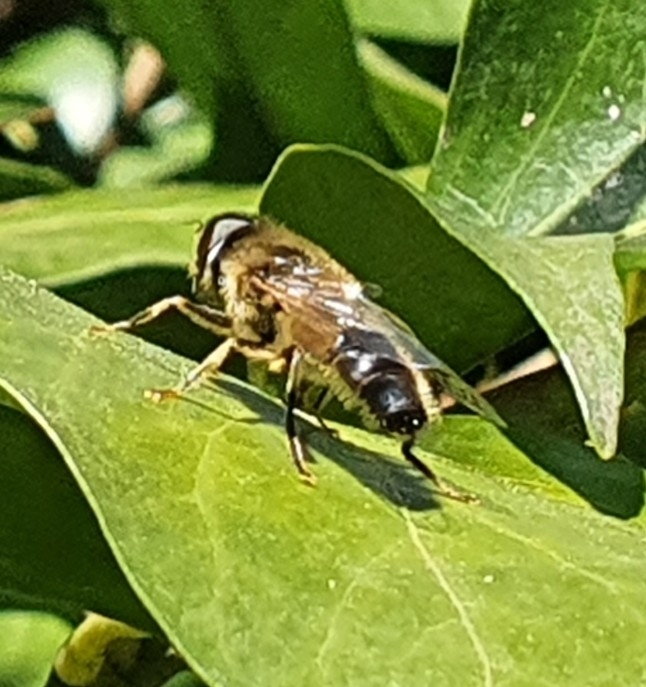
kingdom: Animalia
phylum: Arthropoda
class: Insecta
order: Diptera
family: Syrphidae
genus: Eristalis
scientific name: Eristalis pertinax
